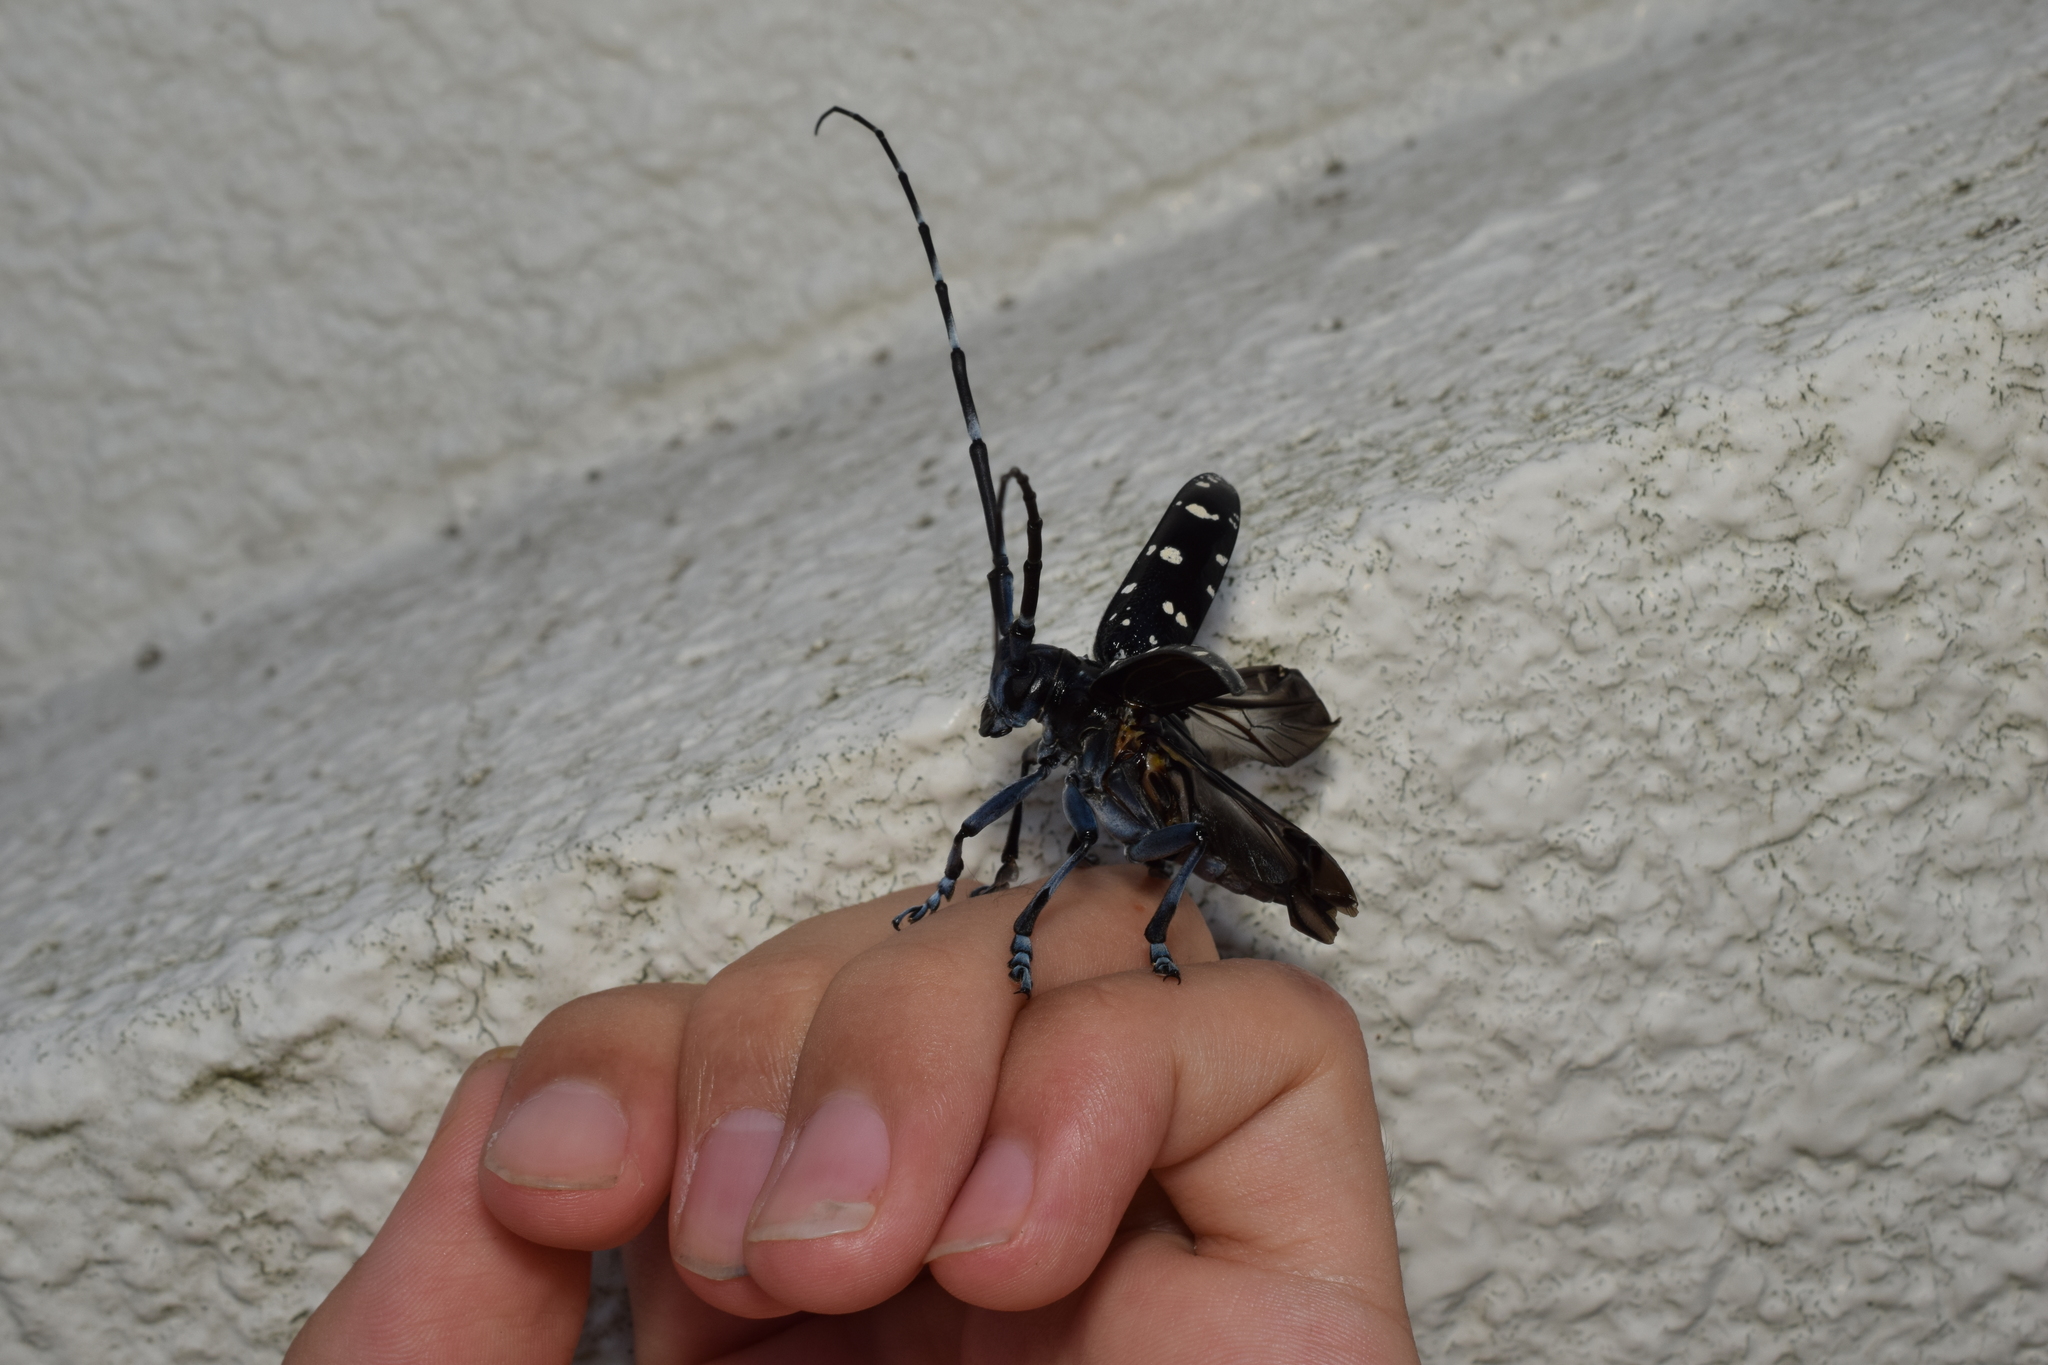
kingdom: Animalia
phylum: Arthropoda
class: Insecta
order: Coleoptera
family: Cerambycidae
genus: Anoplophora
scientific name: Anoplophora chinensis
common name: Citrus longhorned beetle
